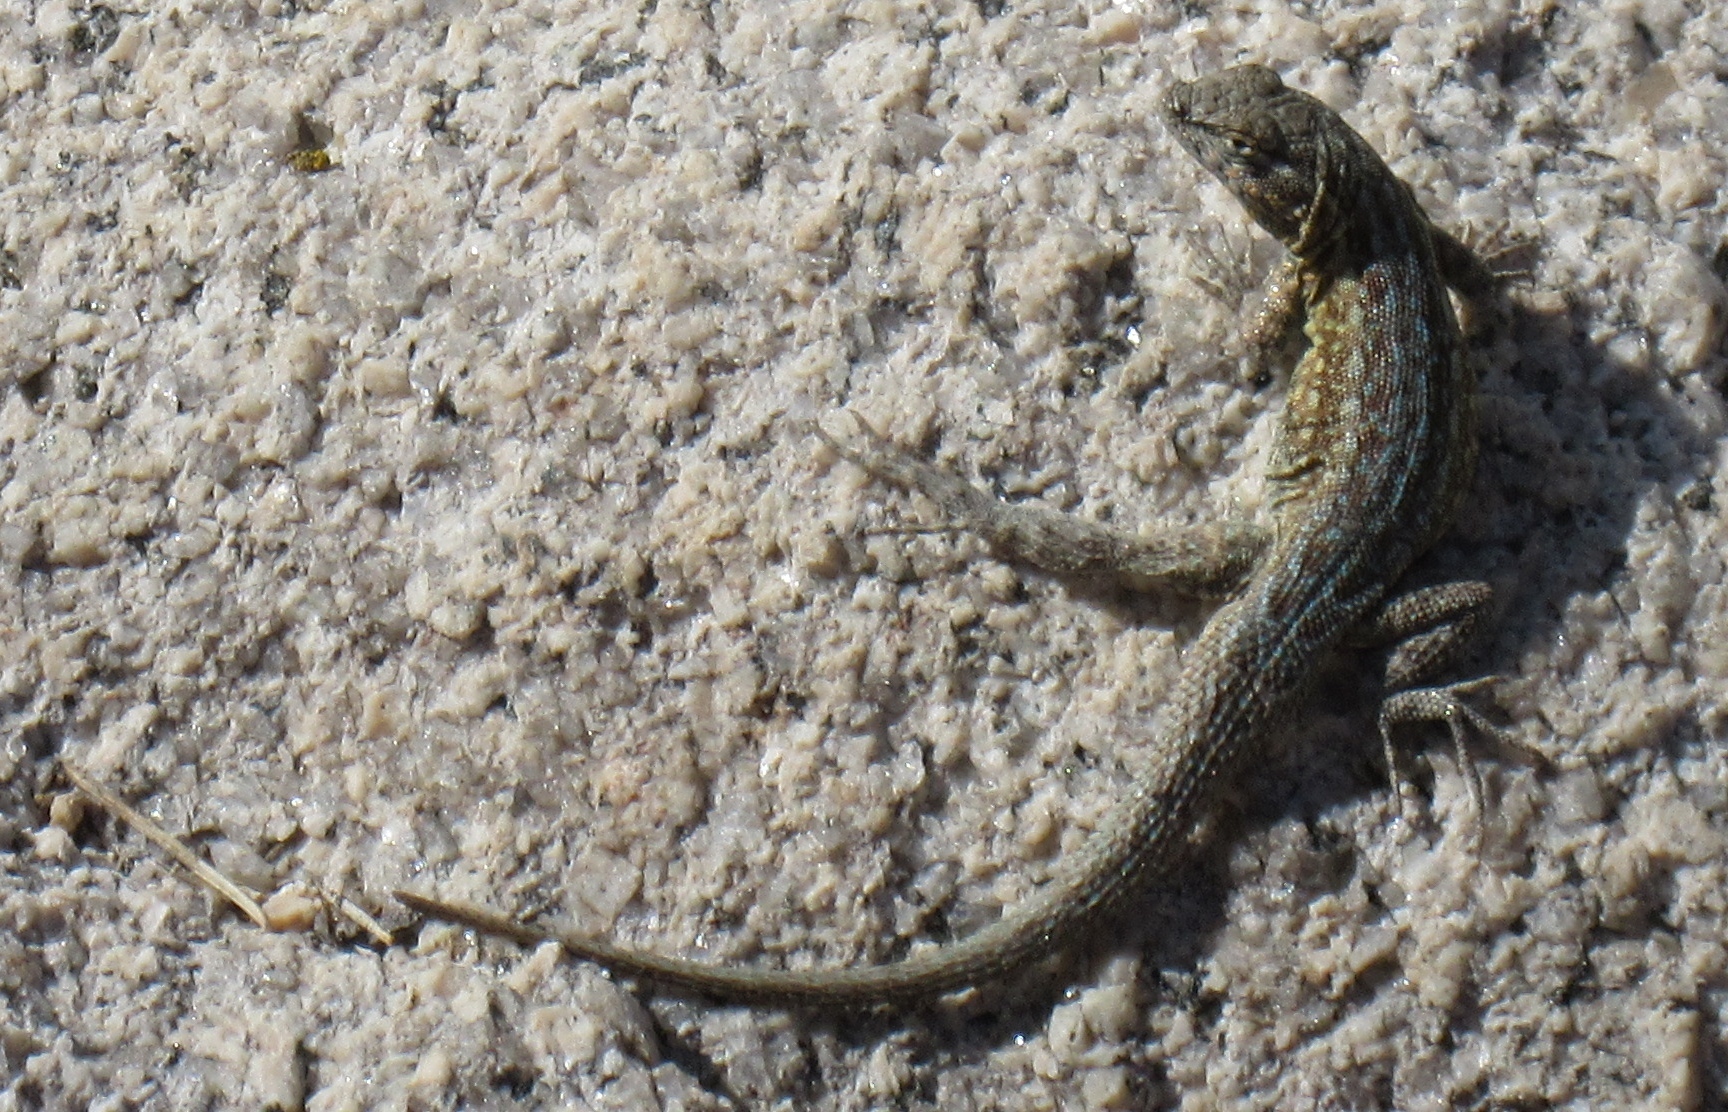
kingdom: Animalia
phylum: Chordata
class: Squamata
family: Phrynosomatidae
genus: Uta
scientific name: Uta stansburiana
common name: Side-blotched lizard
